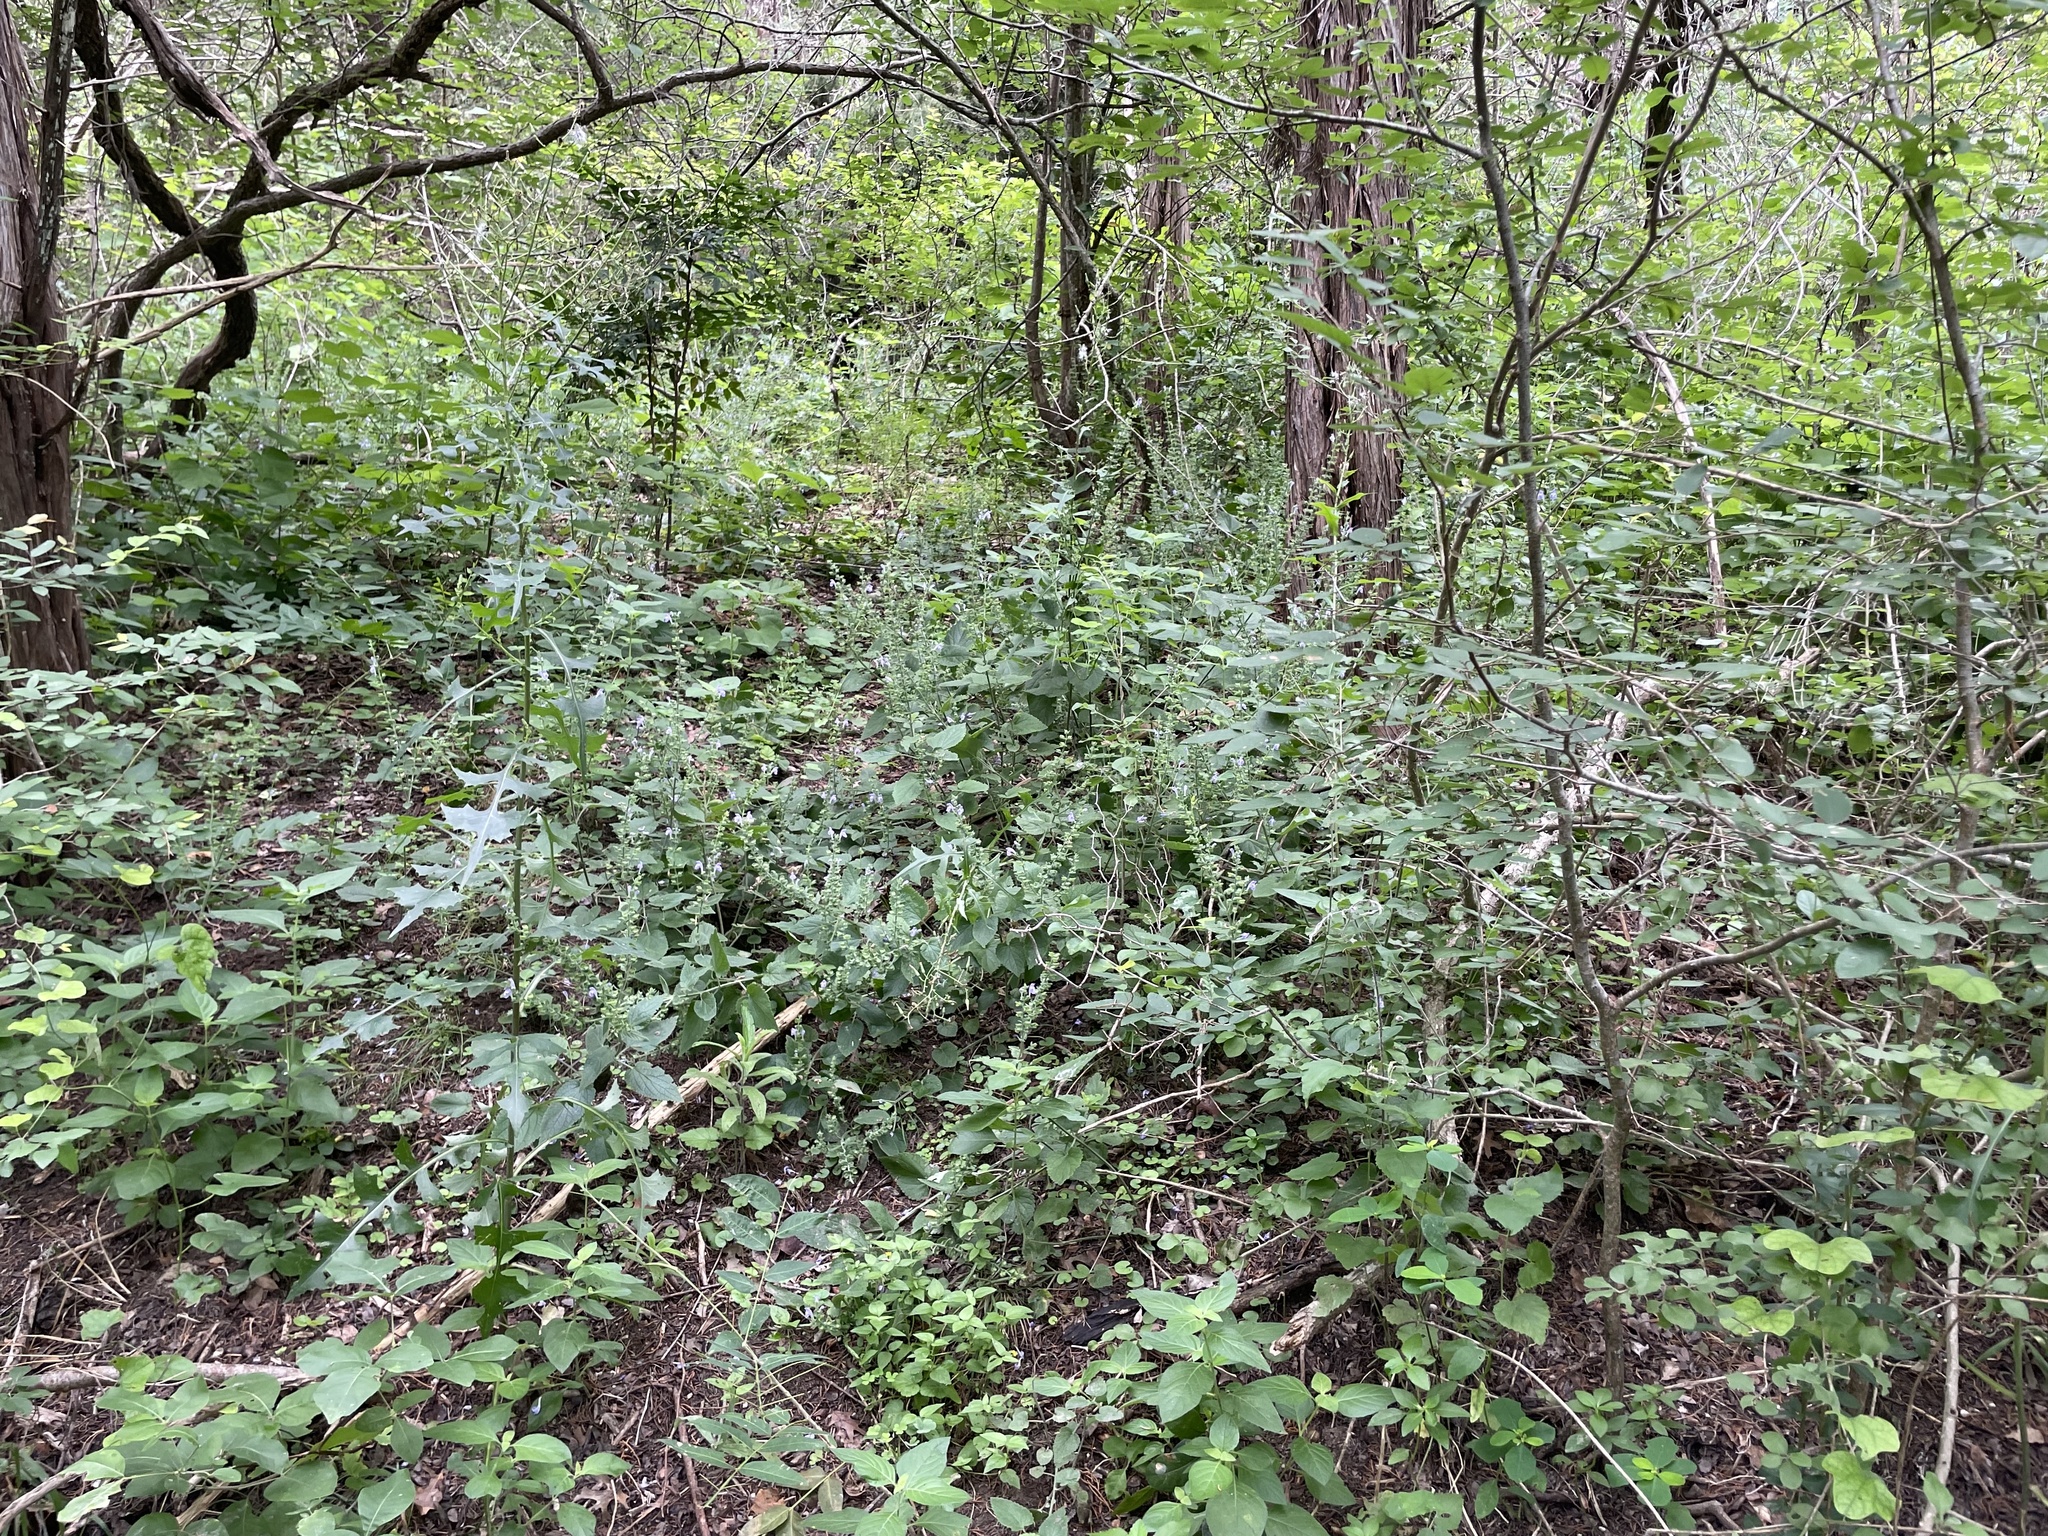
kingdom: Plantae
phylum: Tracheophyta
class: Magnoliopsida
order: Lamiales
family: Lamiaceae
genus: Scutellaria
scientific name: Scutellaria ovata
